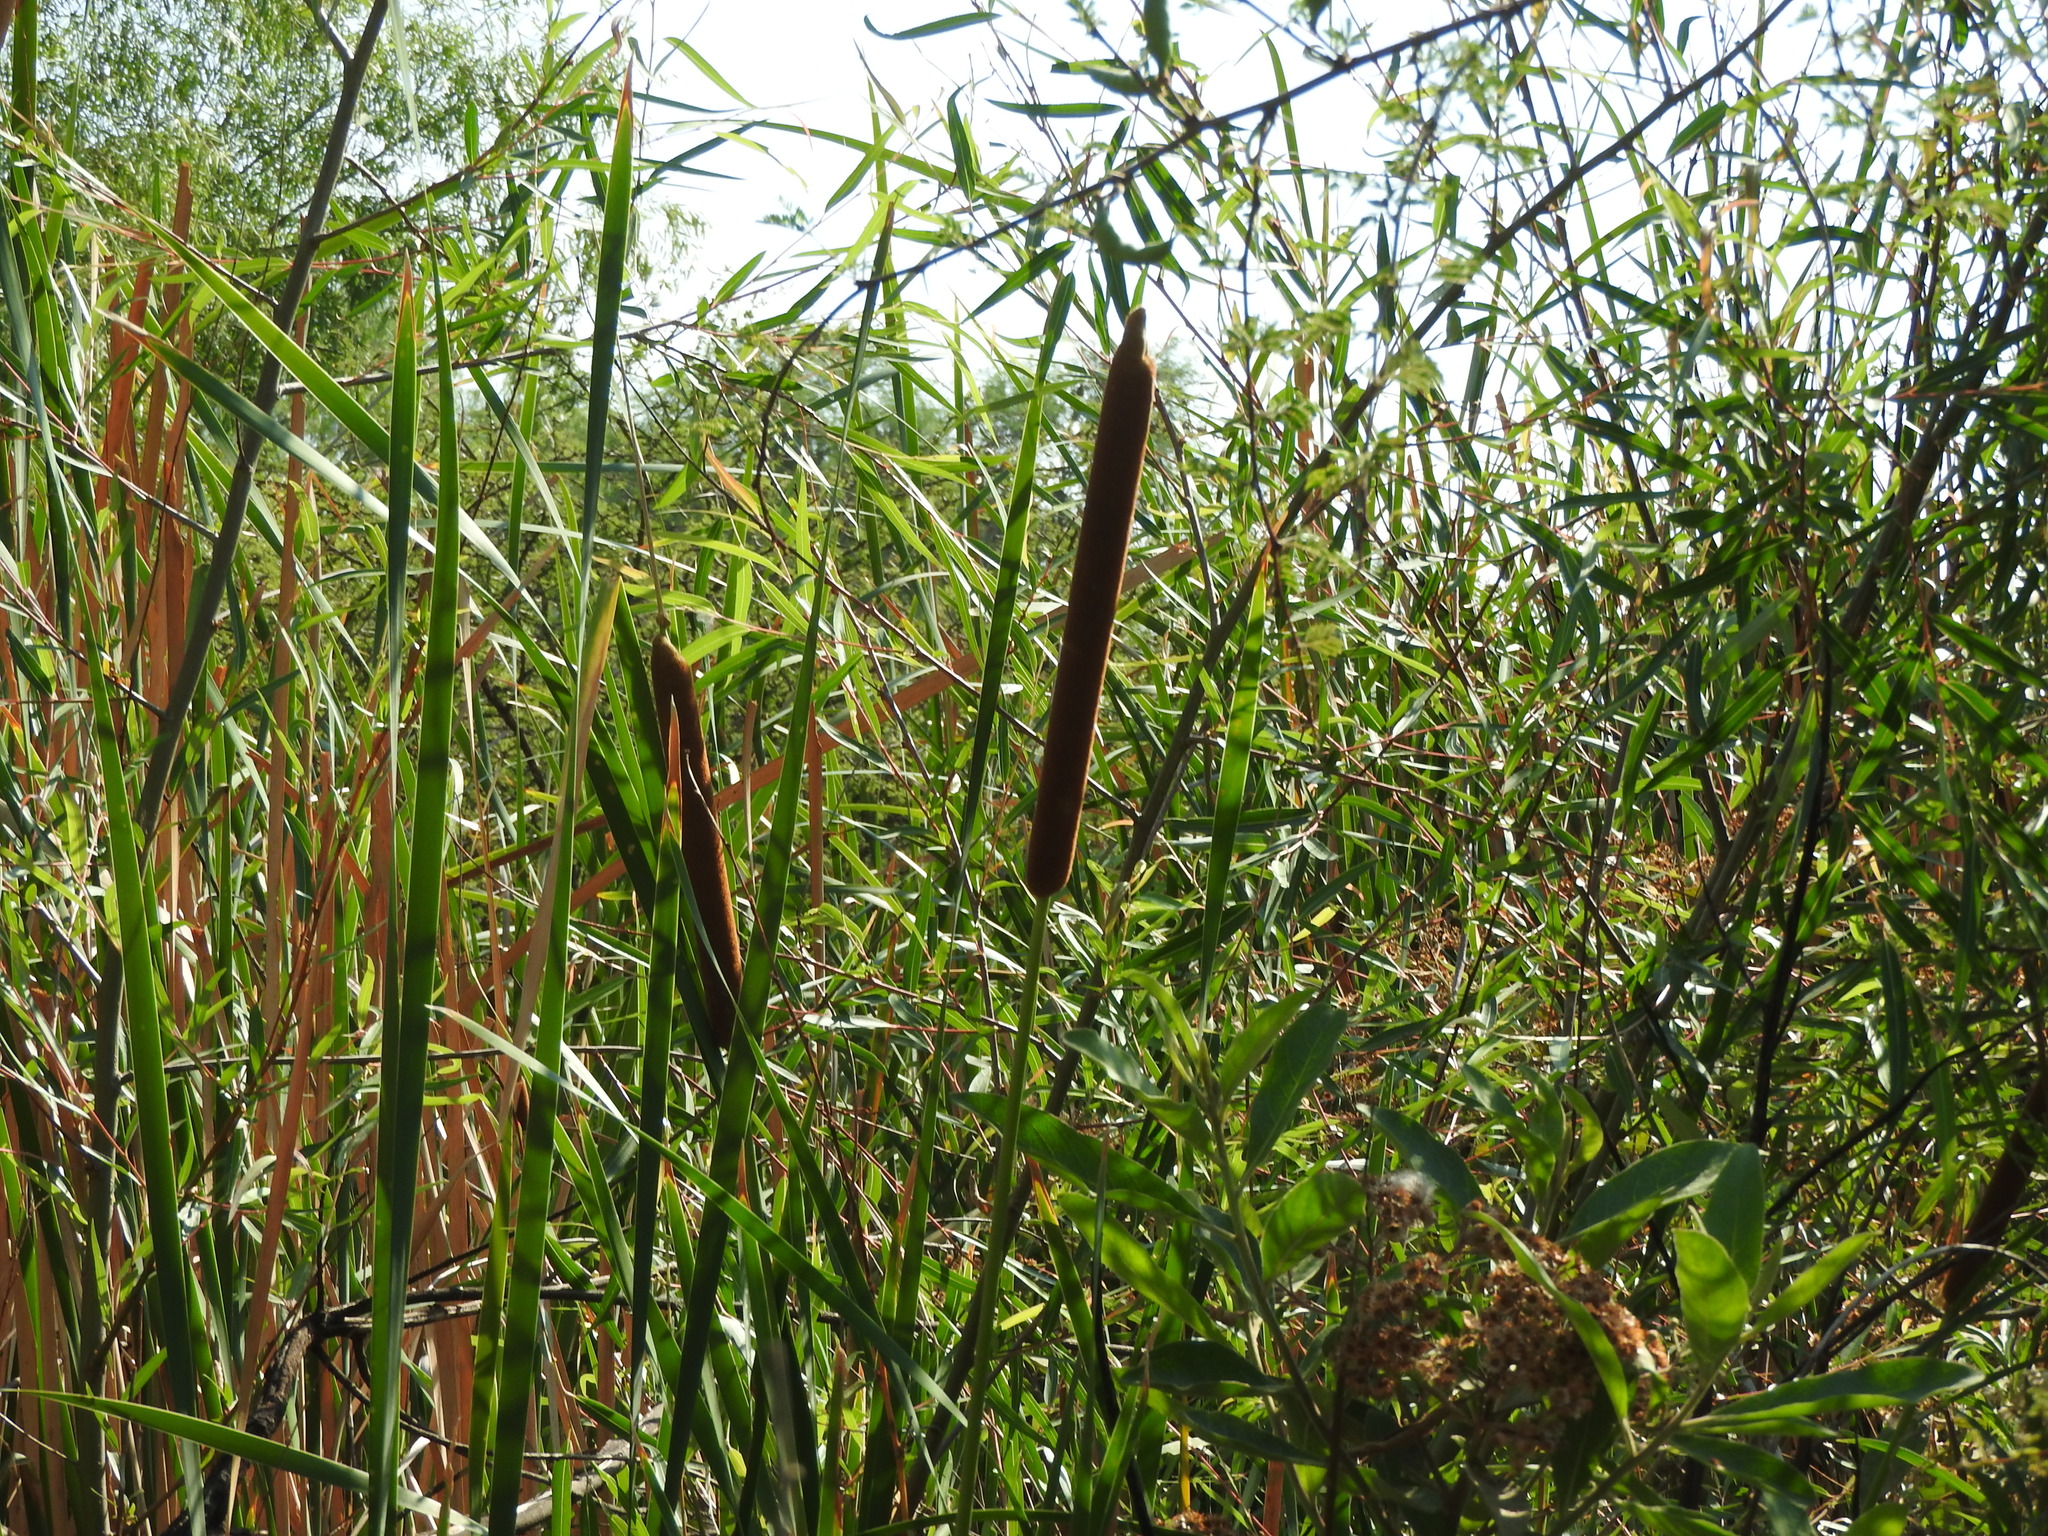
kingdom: Plantae
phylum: Tracheophyta
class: Liliopsida
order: Poales
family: Typhaceae
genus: Typha
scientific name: Typha domingensis
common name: Southern cattail
